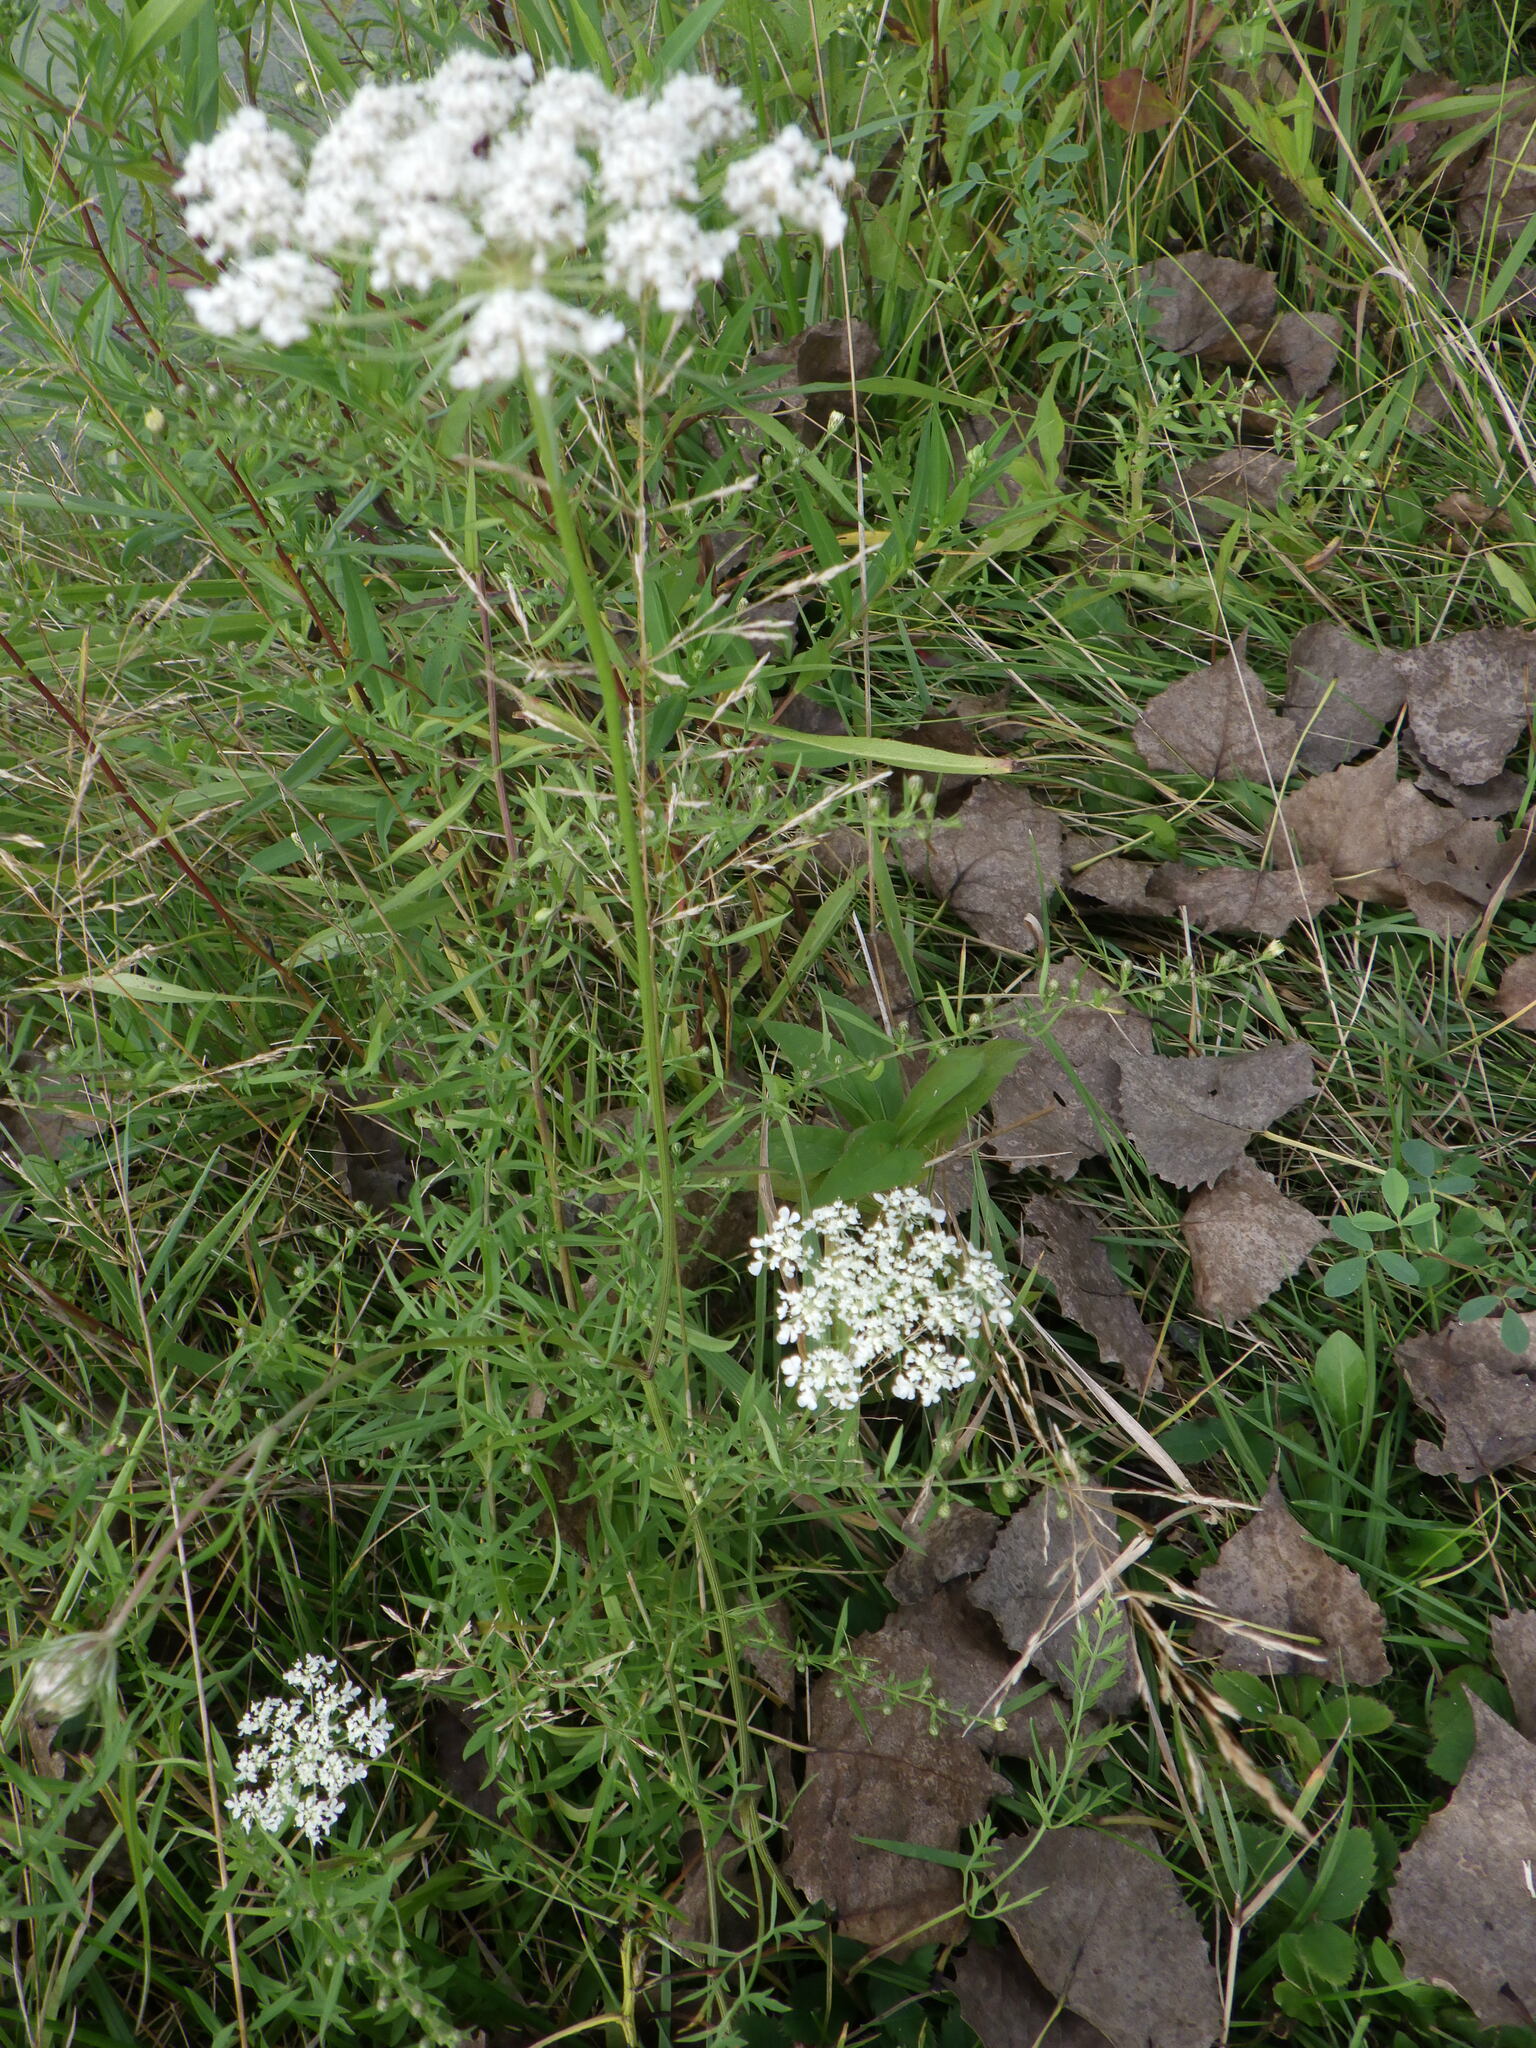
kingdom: Plantae
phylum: Tracheophyta
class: Magnoliopsida
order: Apiales
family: Apiaceae
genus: Daucus
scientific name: Daucus carota
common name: Wild carrot
